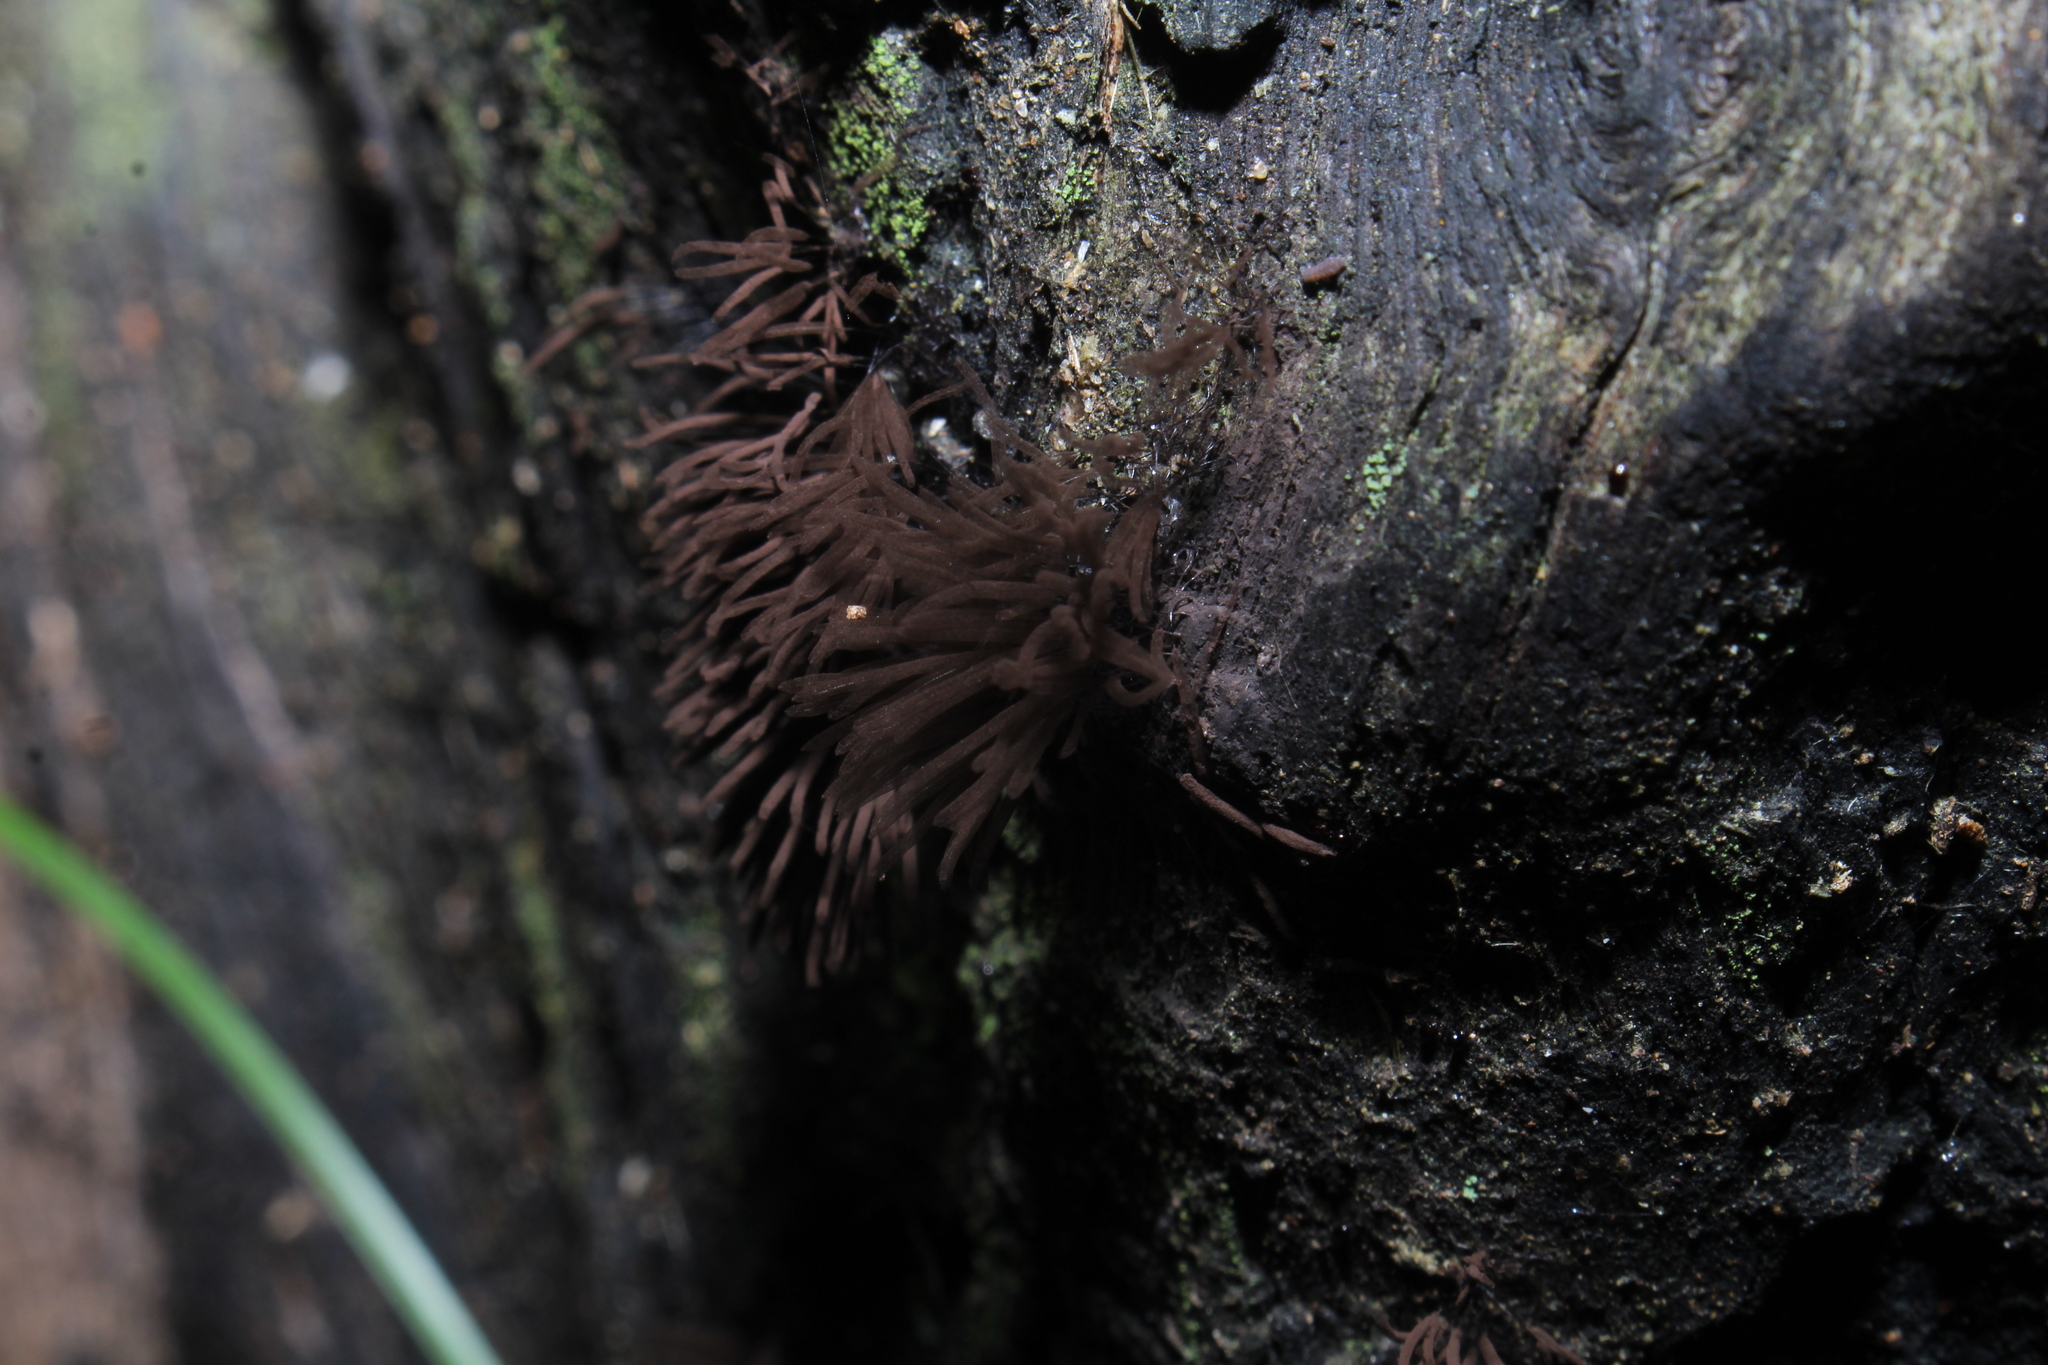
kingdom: Protozoa
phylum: Mycetozoa
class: Myxomycetes
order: Stemonitidales
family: Stemonitidaceae
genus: Stemonitis
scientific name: Stemonitis splendens
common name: Chocolate tube slime
